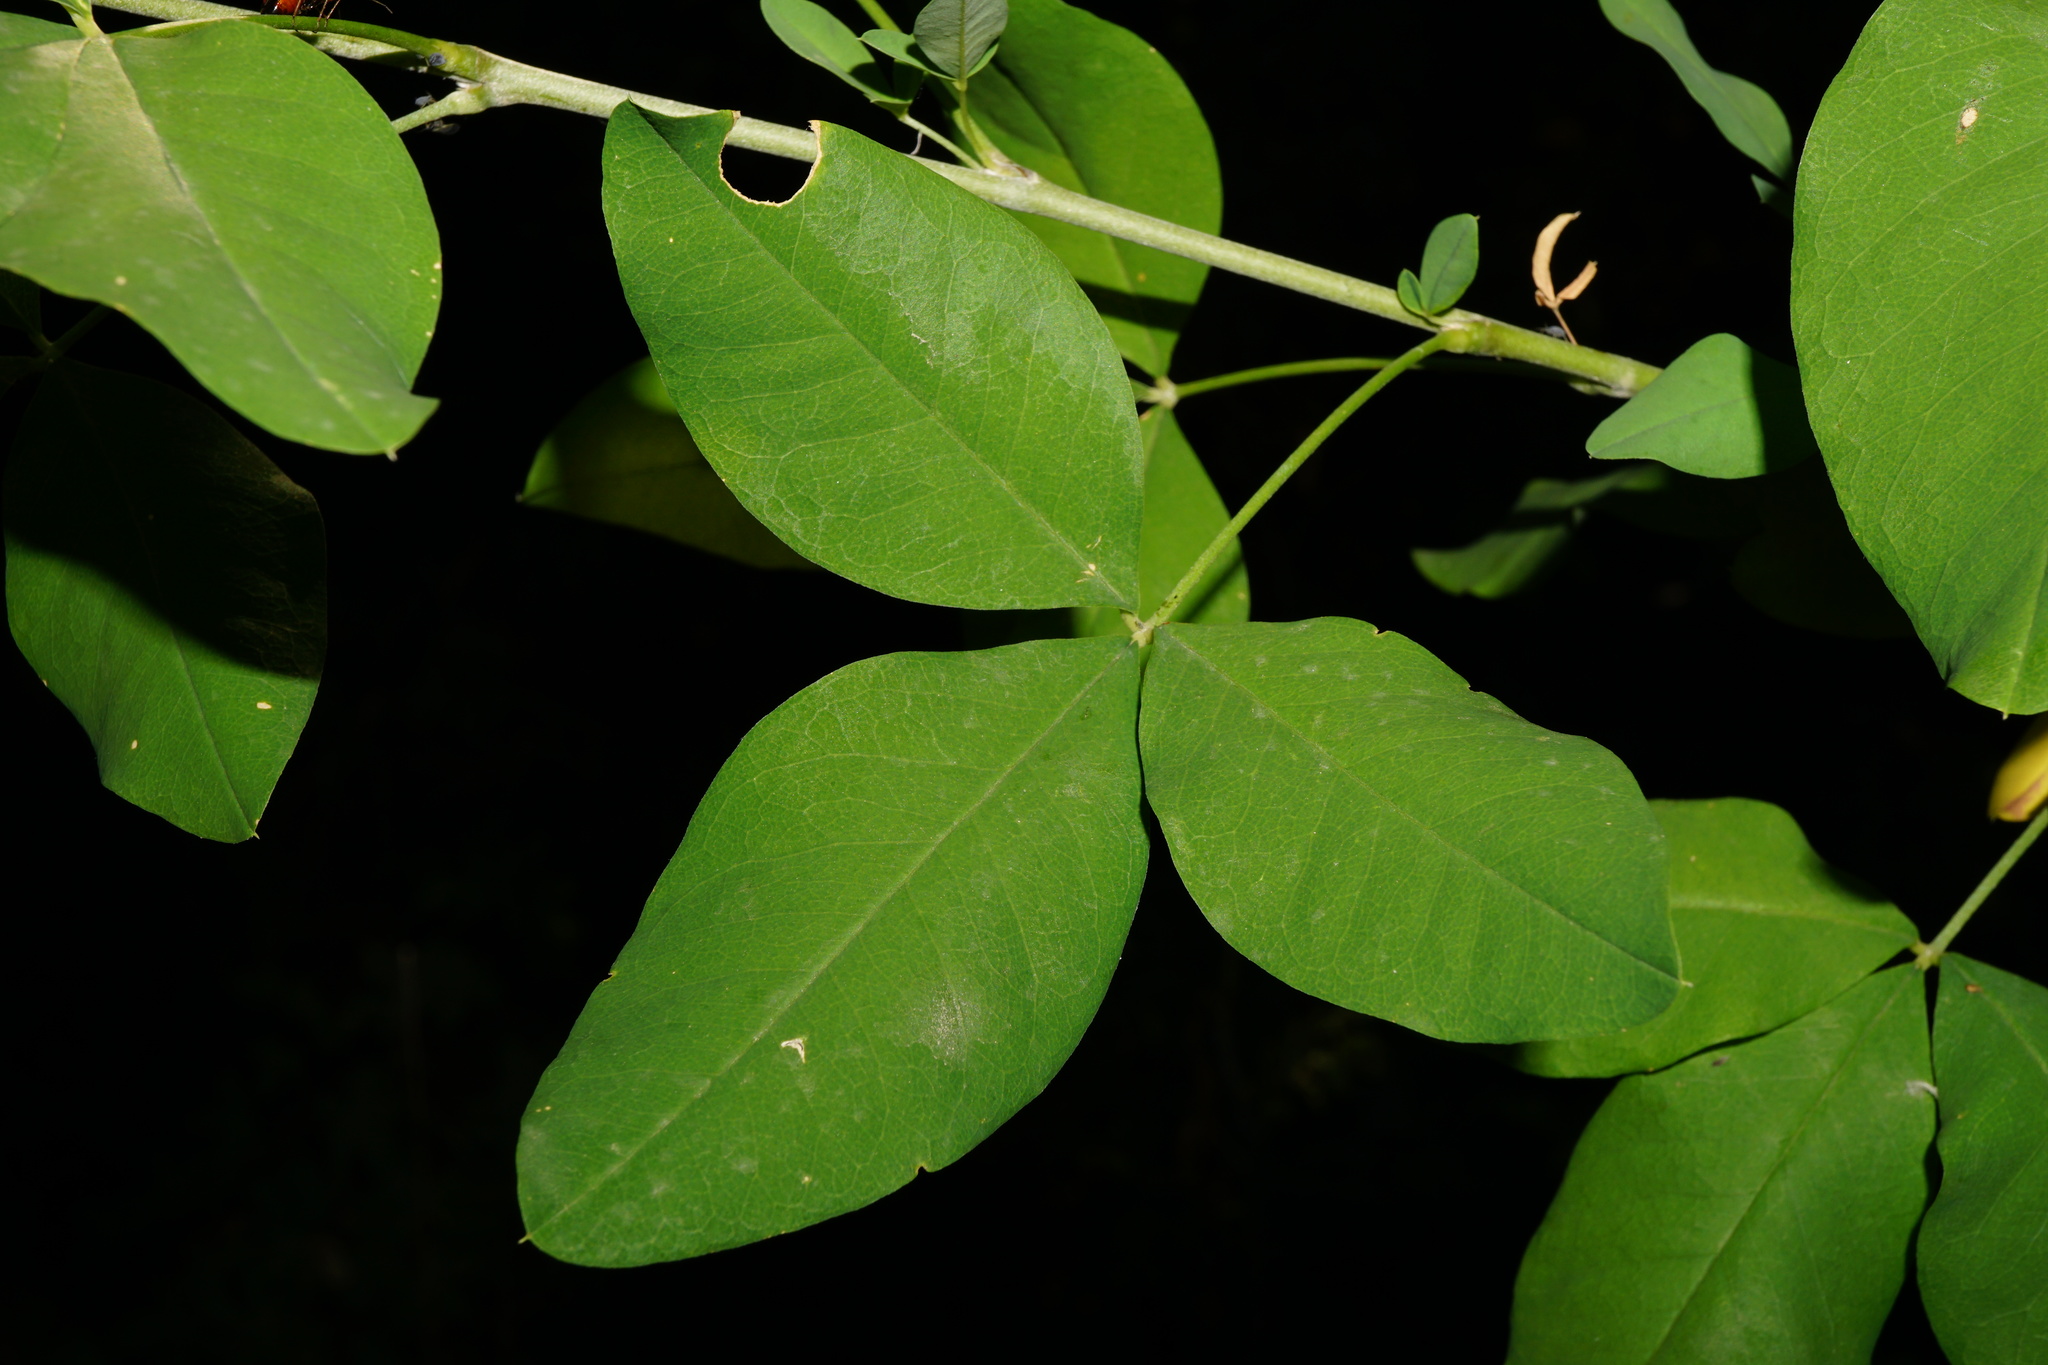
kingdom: Plantae
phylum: Tracheophyta
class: Magnoliopsida
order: Fabales
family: Fabaceae
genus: Laburnum
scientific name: Laburnum anagyroides
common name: Laburnum
